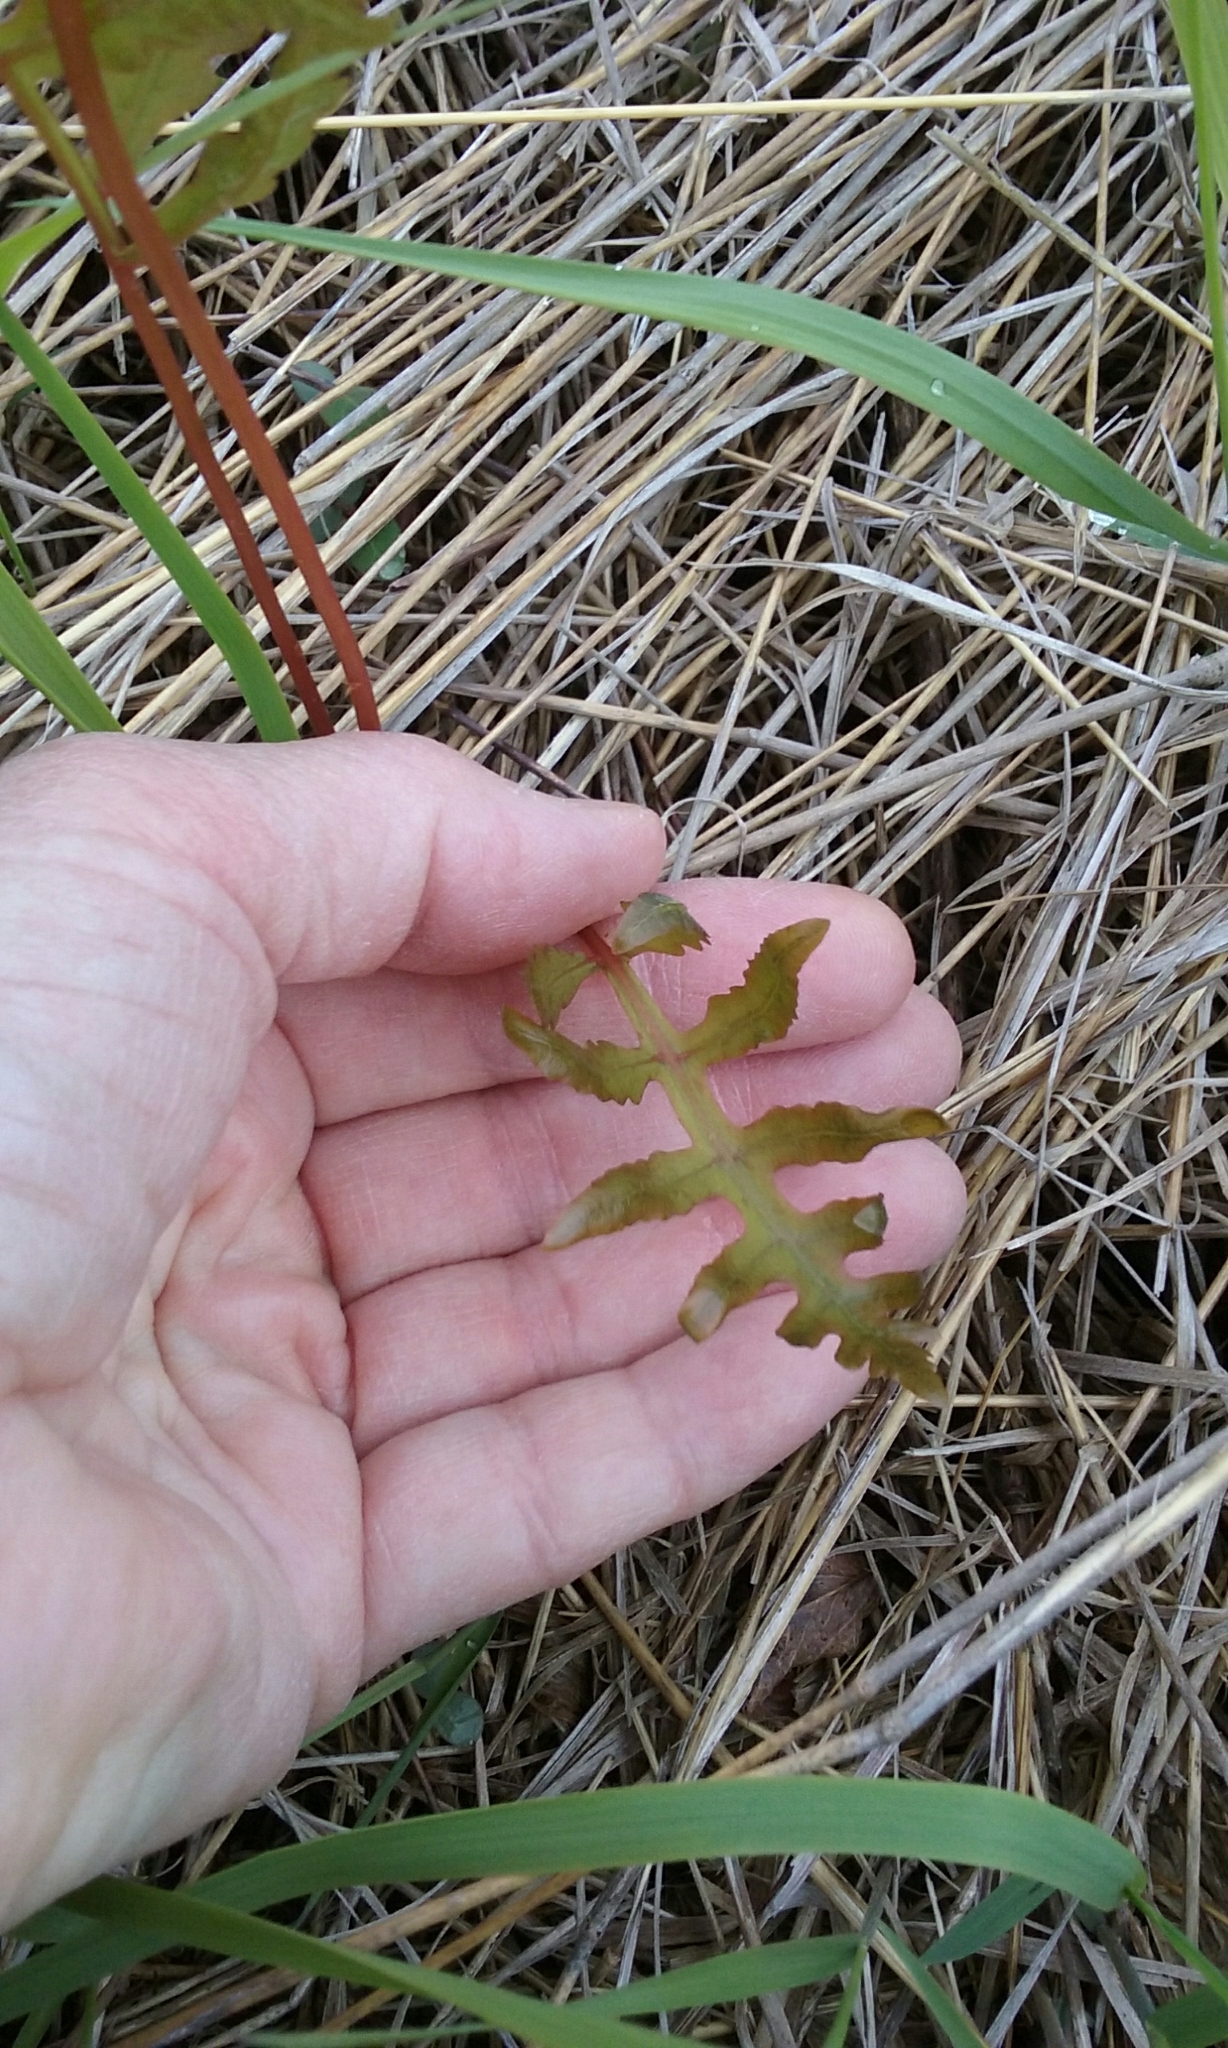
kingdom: Plantae
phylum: Tracheophyta
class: Polypodiopsida
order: Polypodiales
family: Onocleaceae
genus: Onoclea
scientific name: Onoclea sensibilis
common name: Sensitive fern
